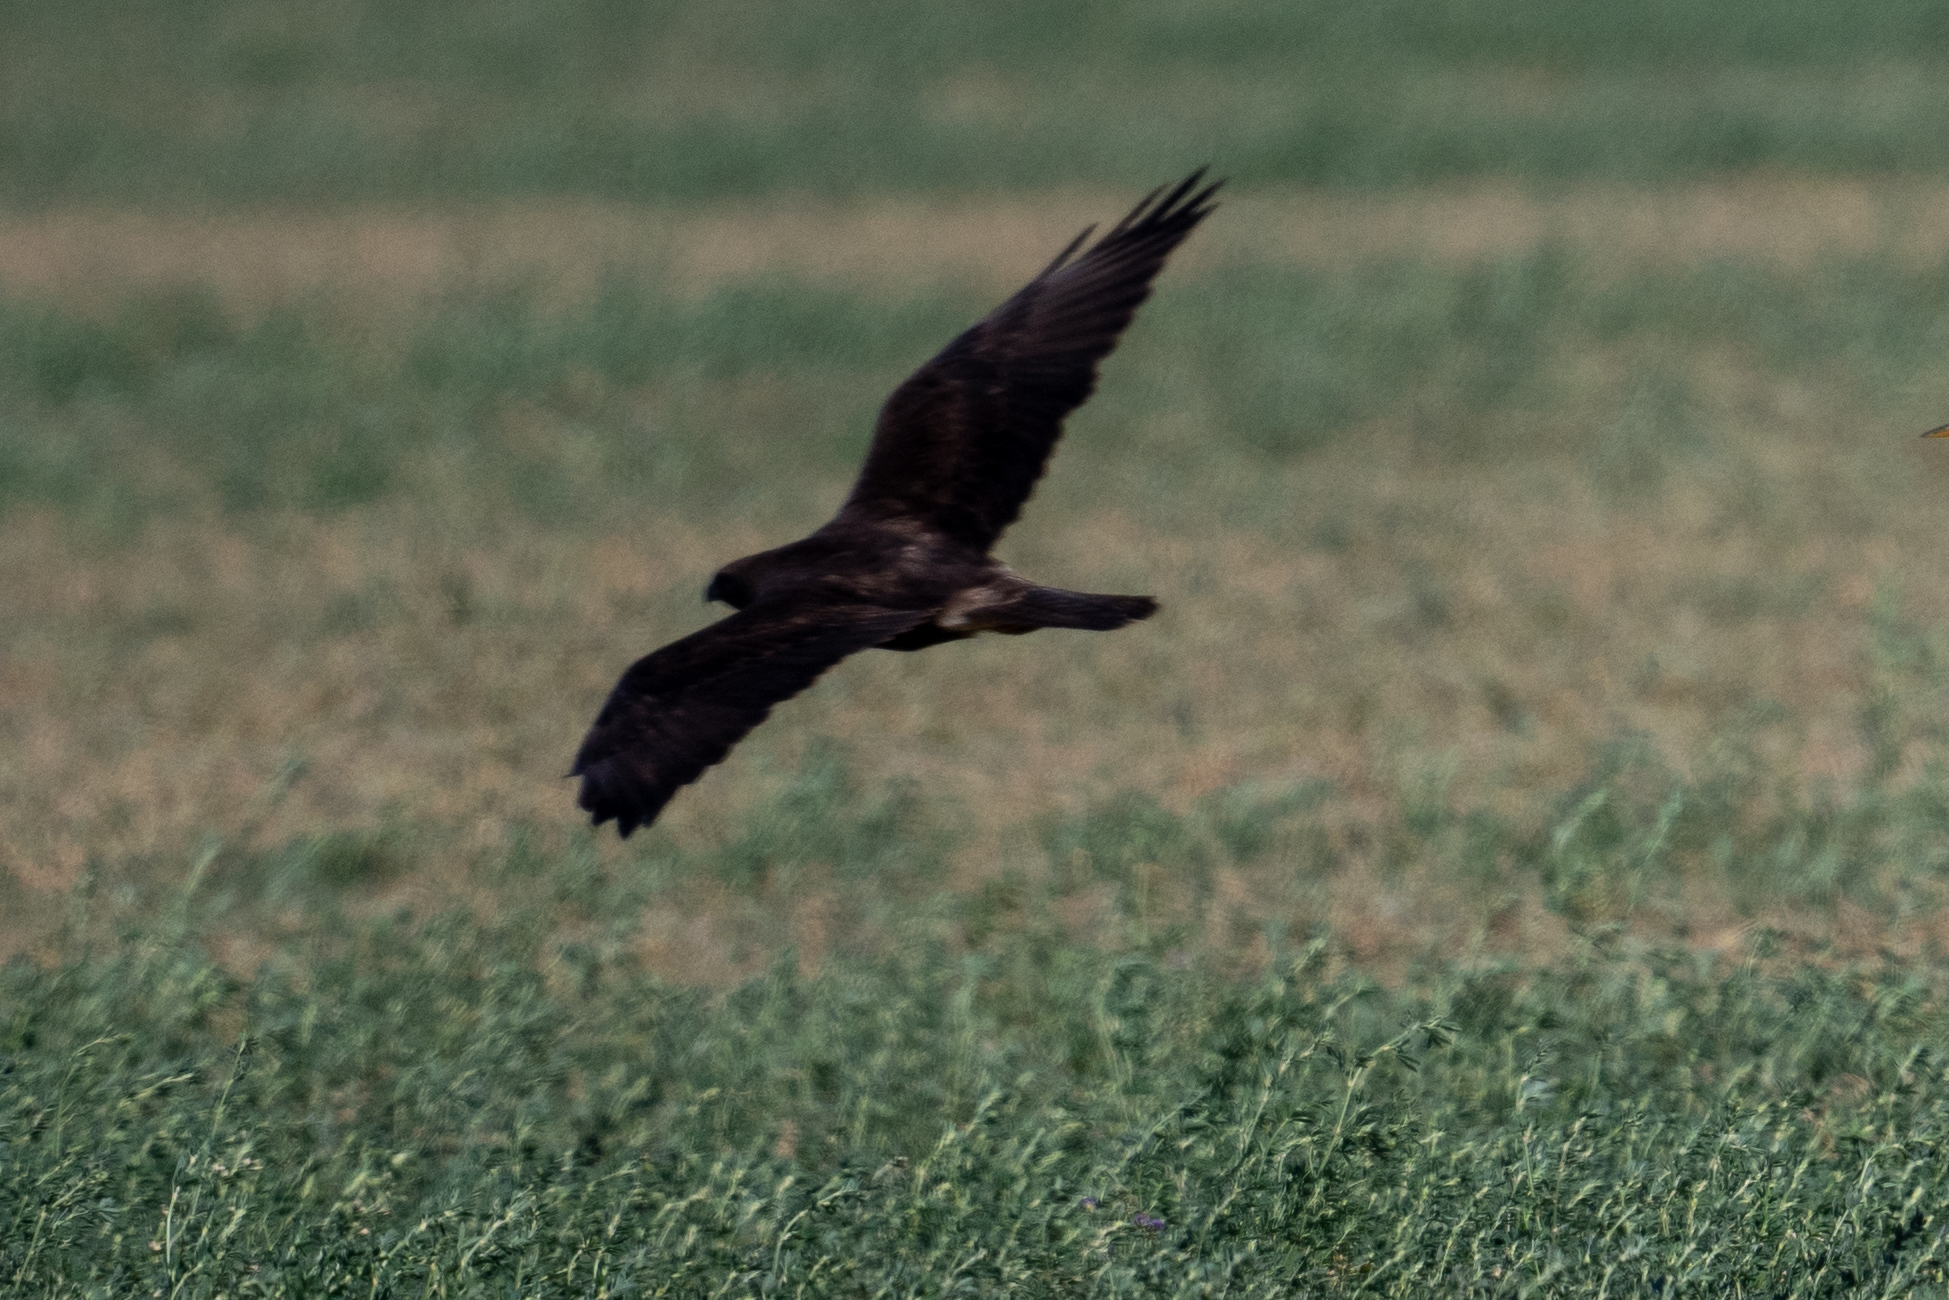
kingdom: Animalia
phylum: Chordata
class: Aves
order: Accipitriformes
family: Accipitridae
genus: Buteo
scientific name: Buteo swainsoni
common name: Swainson's hawk
